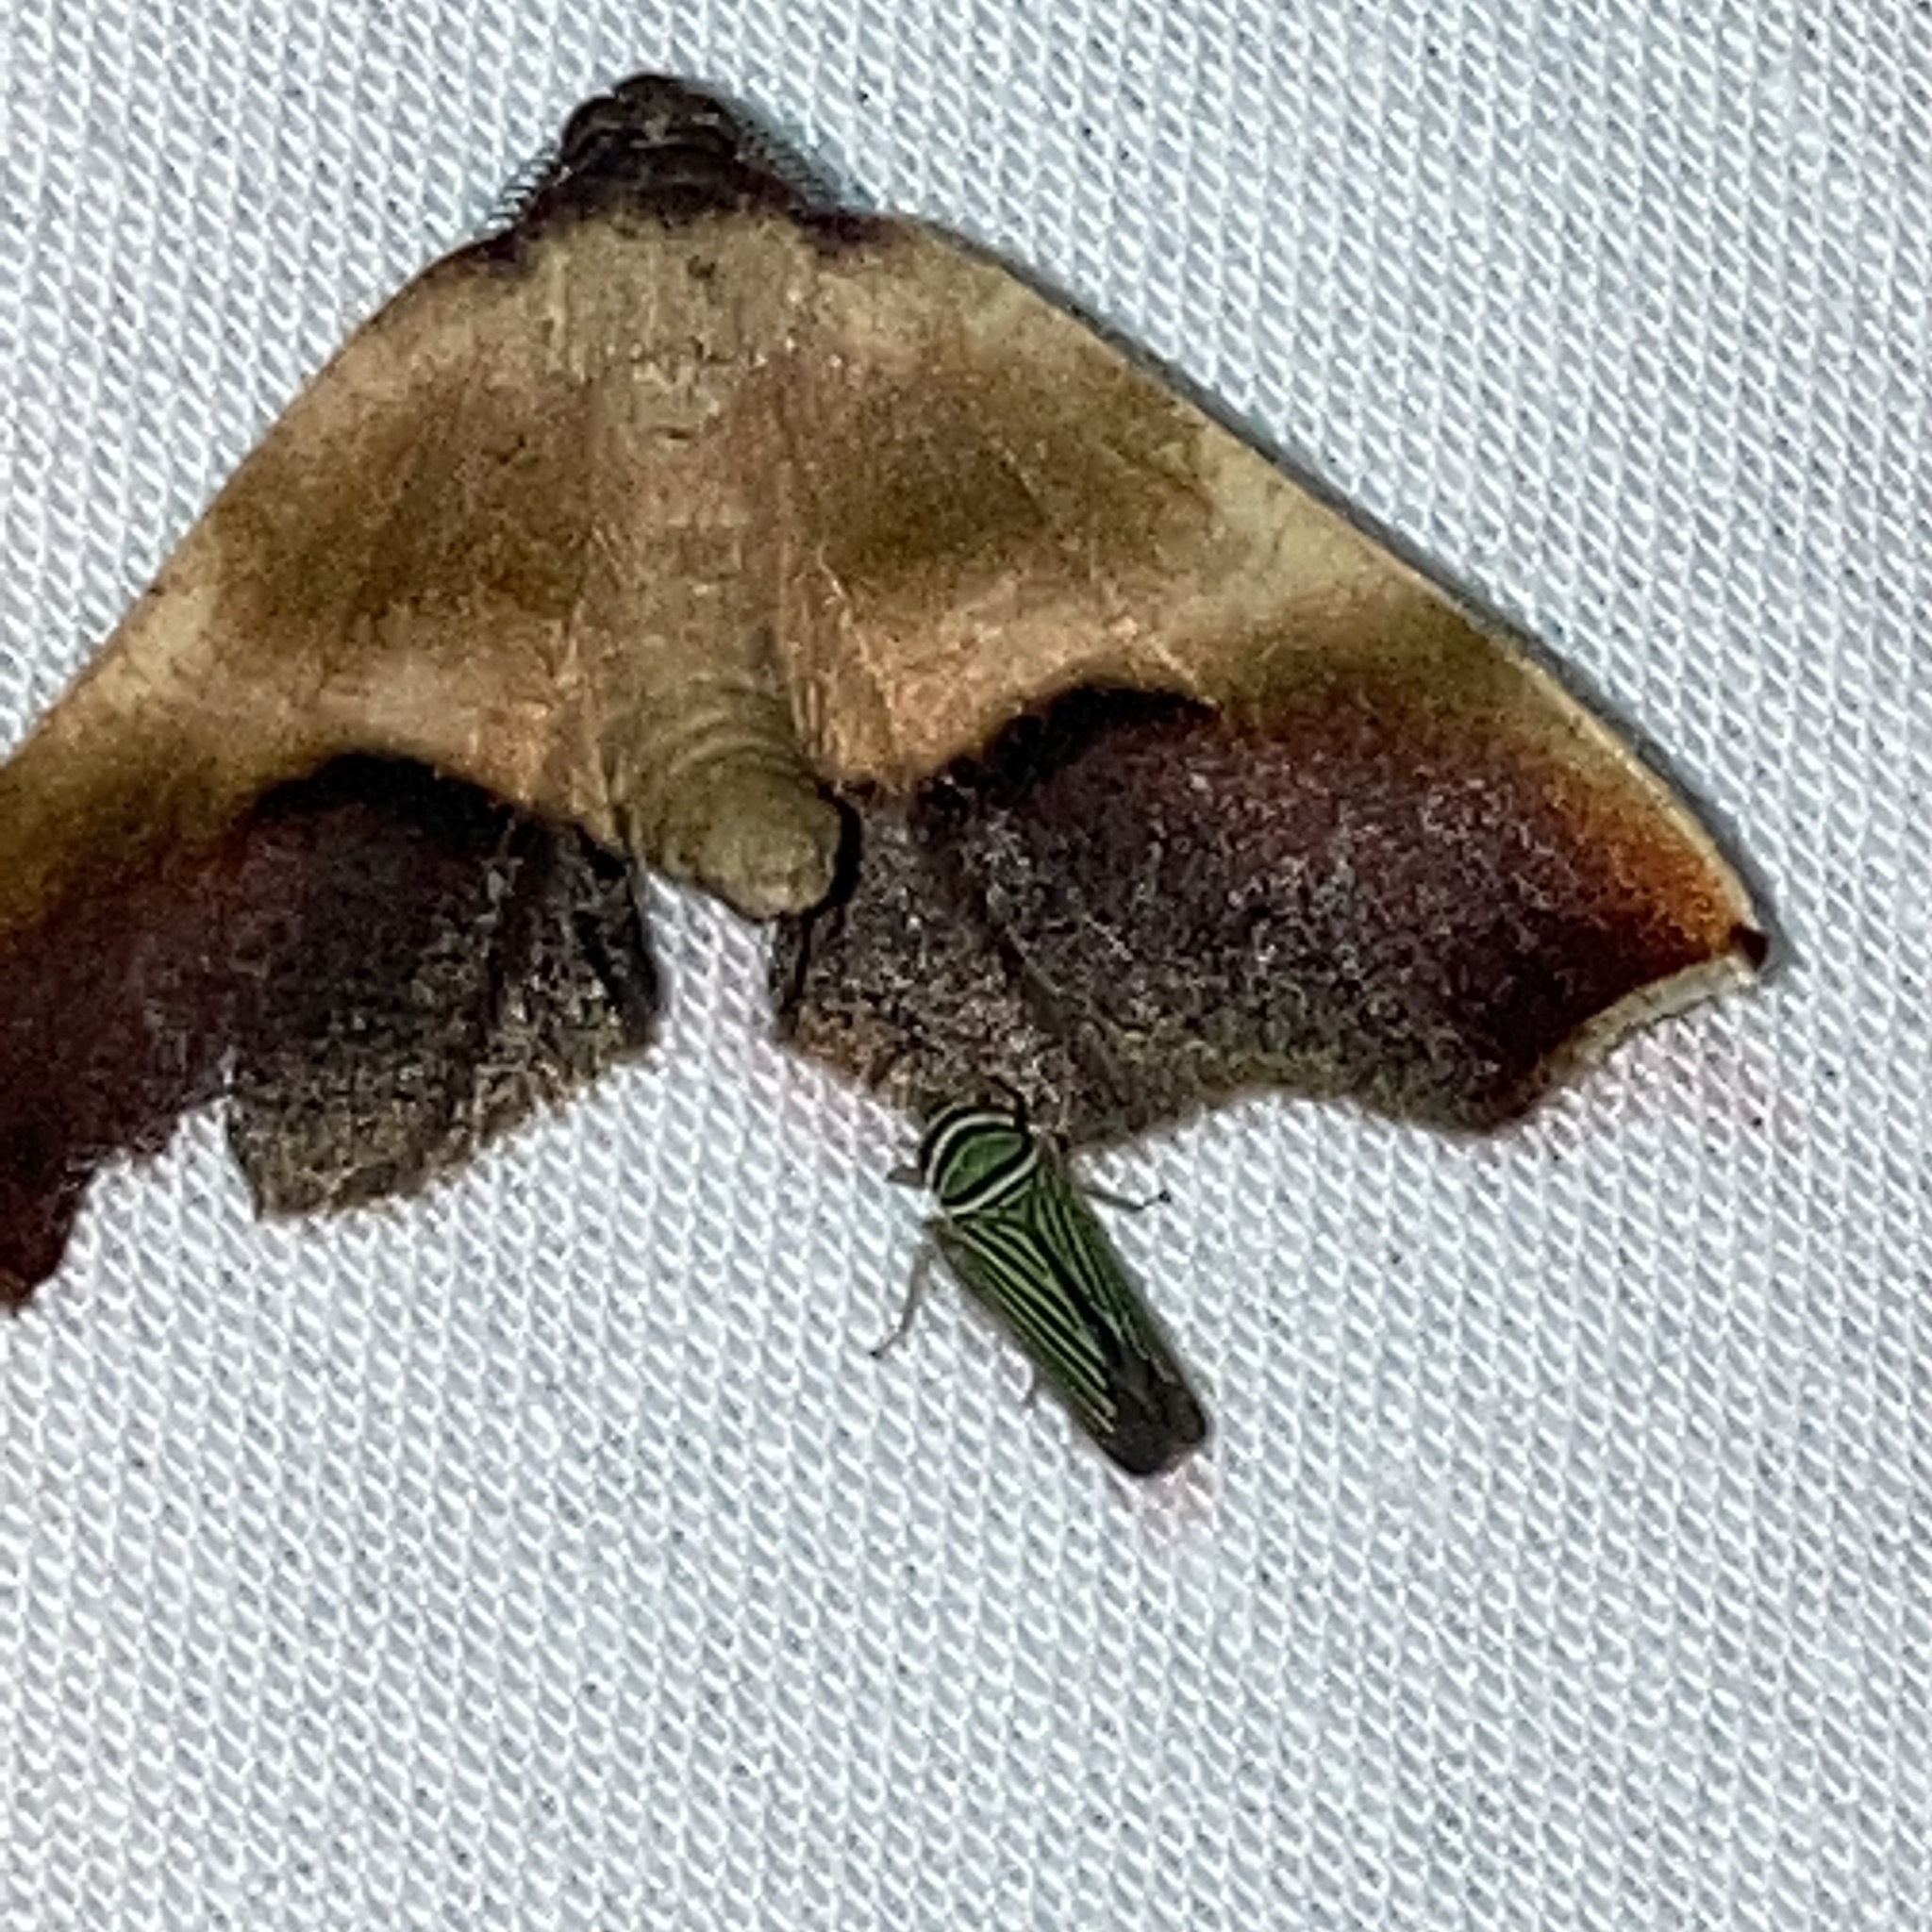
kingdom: Animalia
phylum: Arthropoda
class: Insecta
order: Lepidoptera
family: Geometridae
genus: Plagodis
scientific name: Plagodis kuetzingi
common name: Purple plagodis
